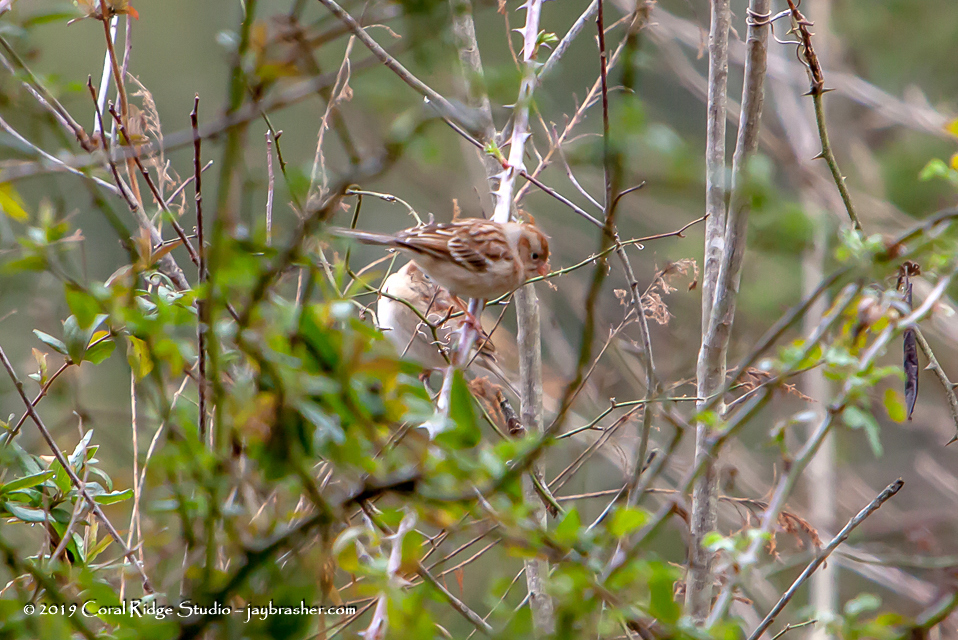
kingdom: Animalia
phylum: Chordata
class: Aves
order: Passeriformes
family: Passerellidae
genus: Spizella
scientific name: Spizella pusilla
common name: Field sparrow
